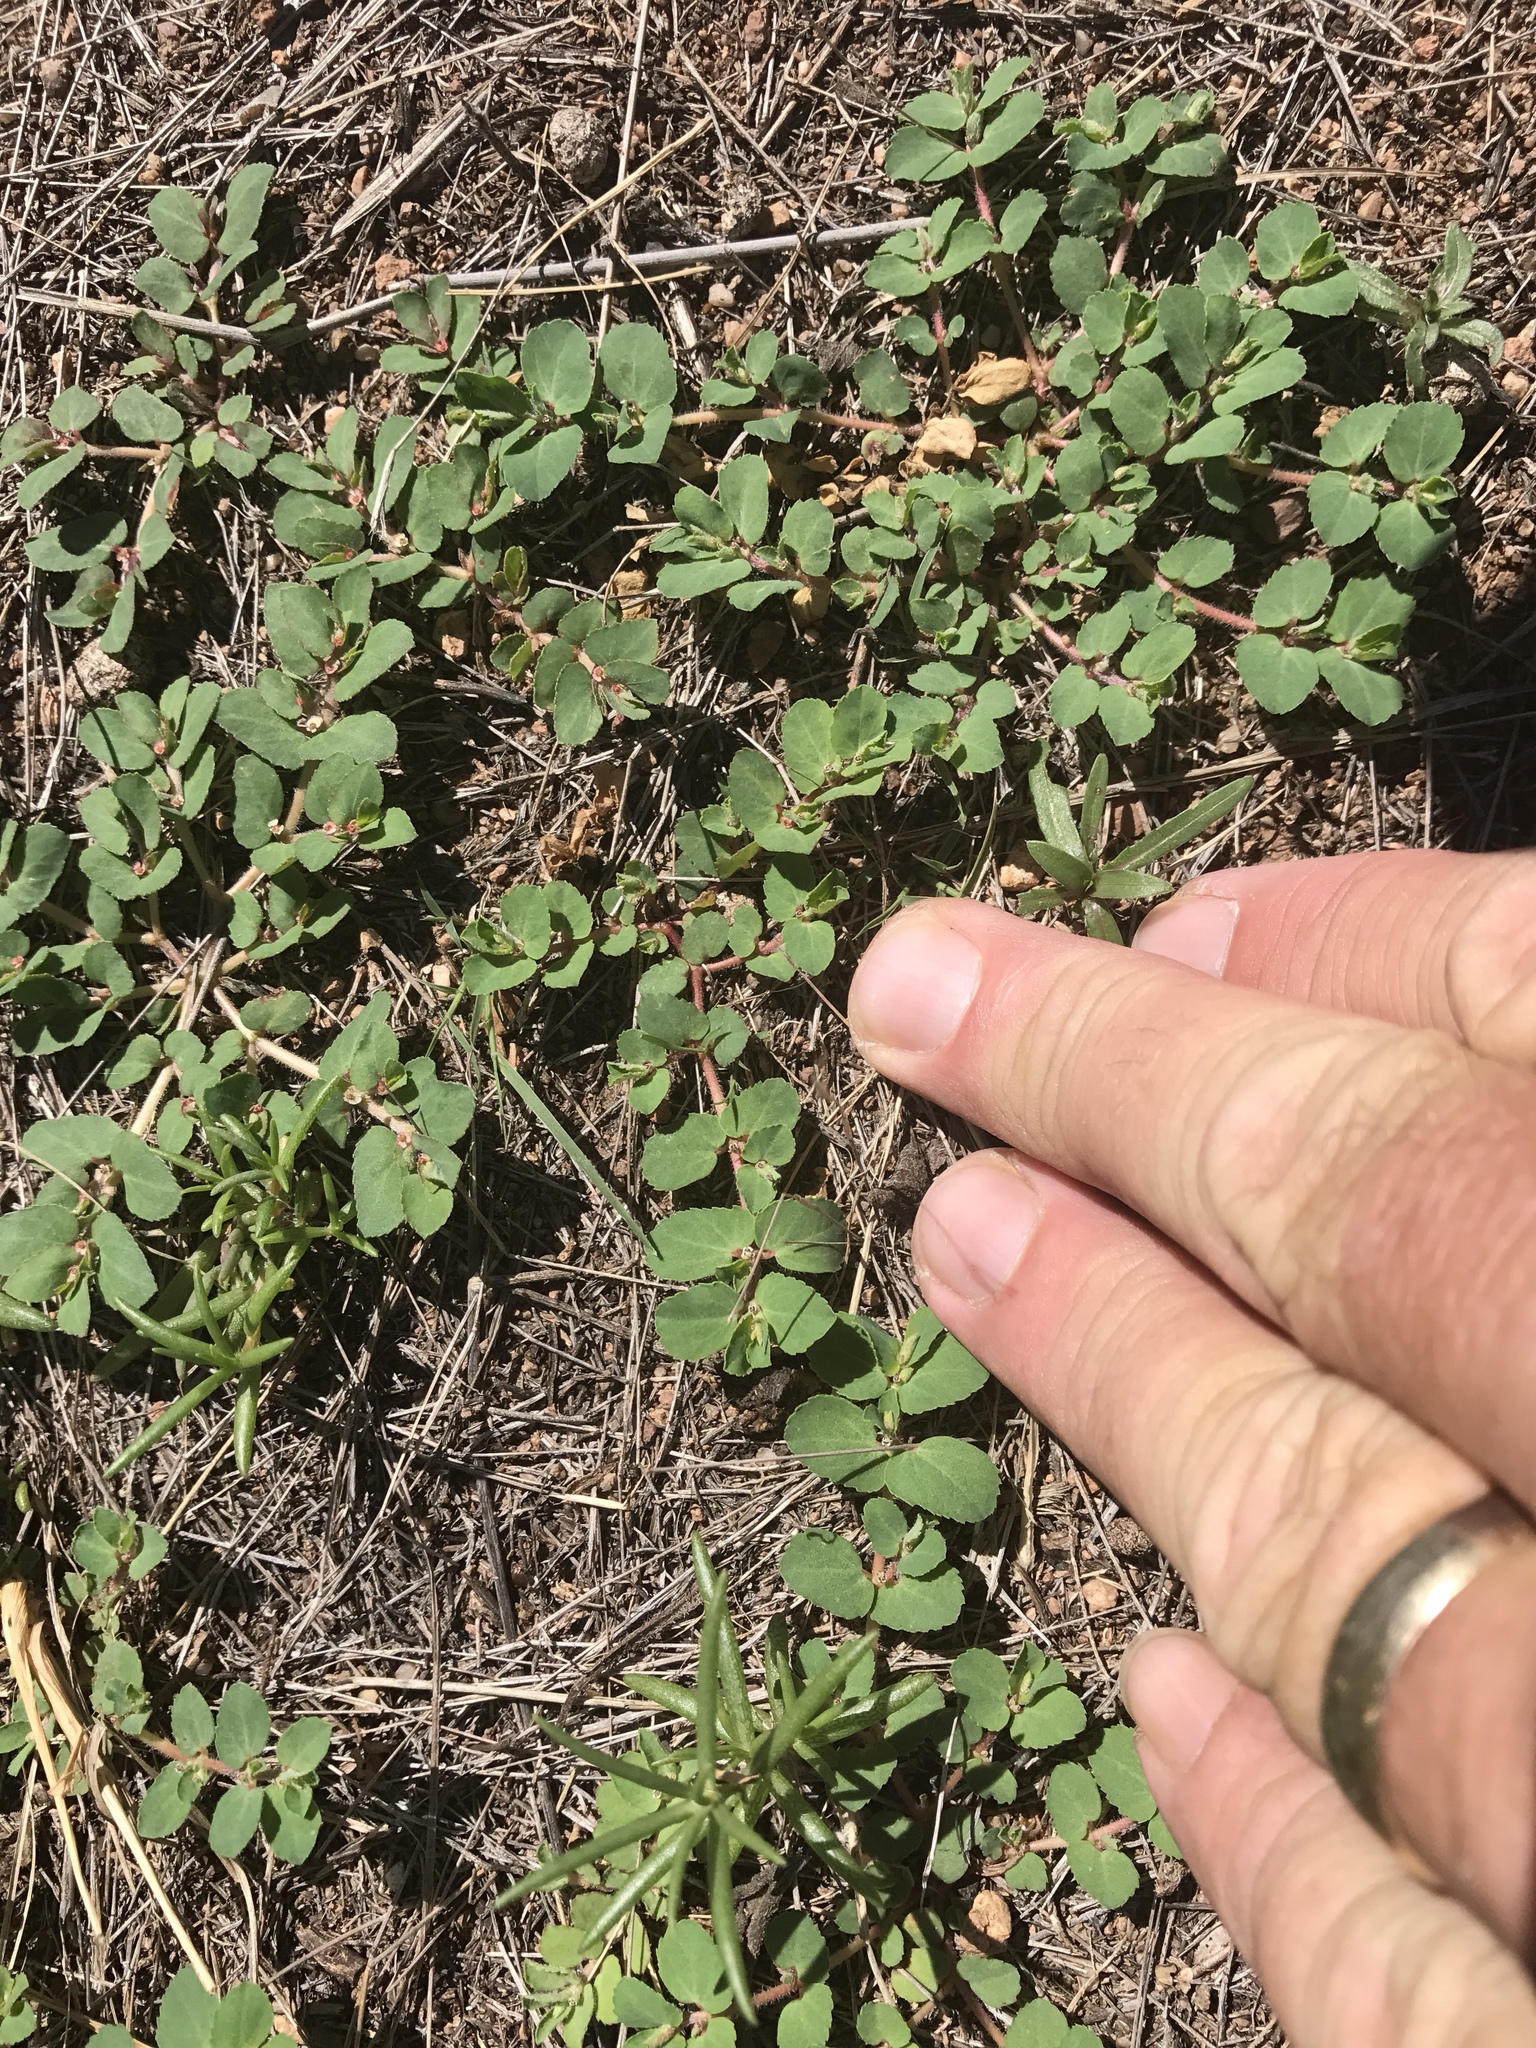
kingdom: Plantae
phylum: Tracheophyta
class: Magnoliopsida
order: Malpighiales
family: Euphorbiaceae
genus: Euphorbia
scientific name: Euphorbia indivisa
